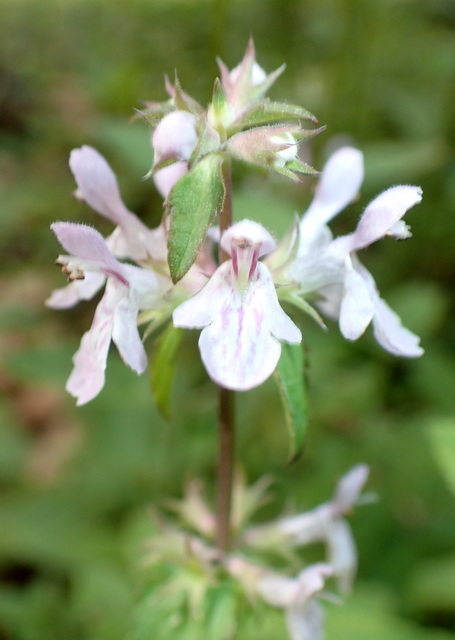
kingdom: Plantae
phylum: Tracheophyta
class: Magnoliopsida
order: Lamiales
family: Lamiaceae
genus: Stachys
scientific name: Stachys floridana
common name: Florida betony
